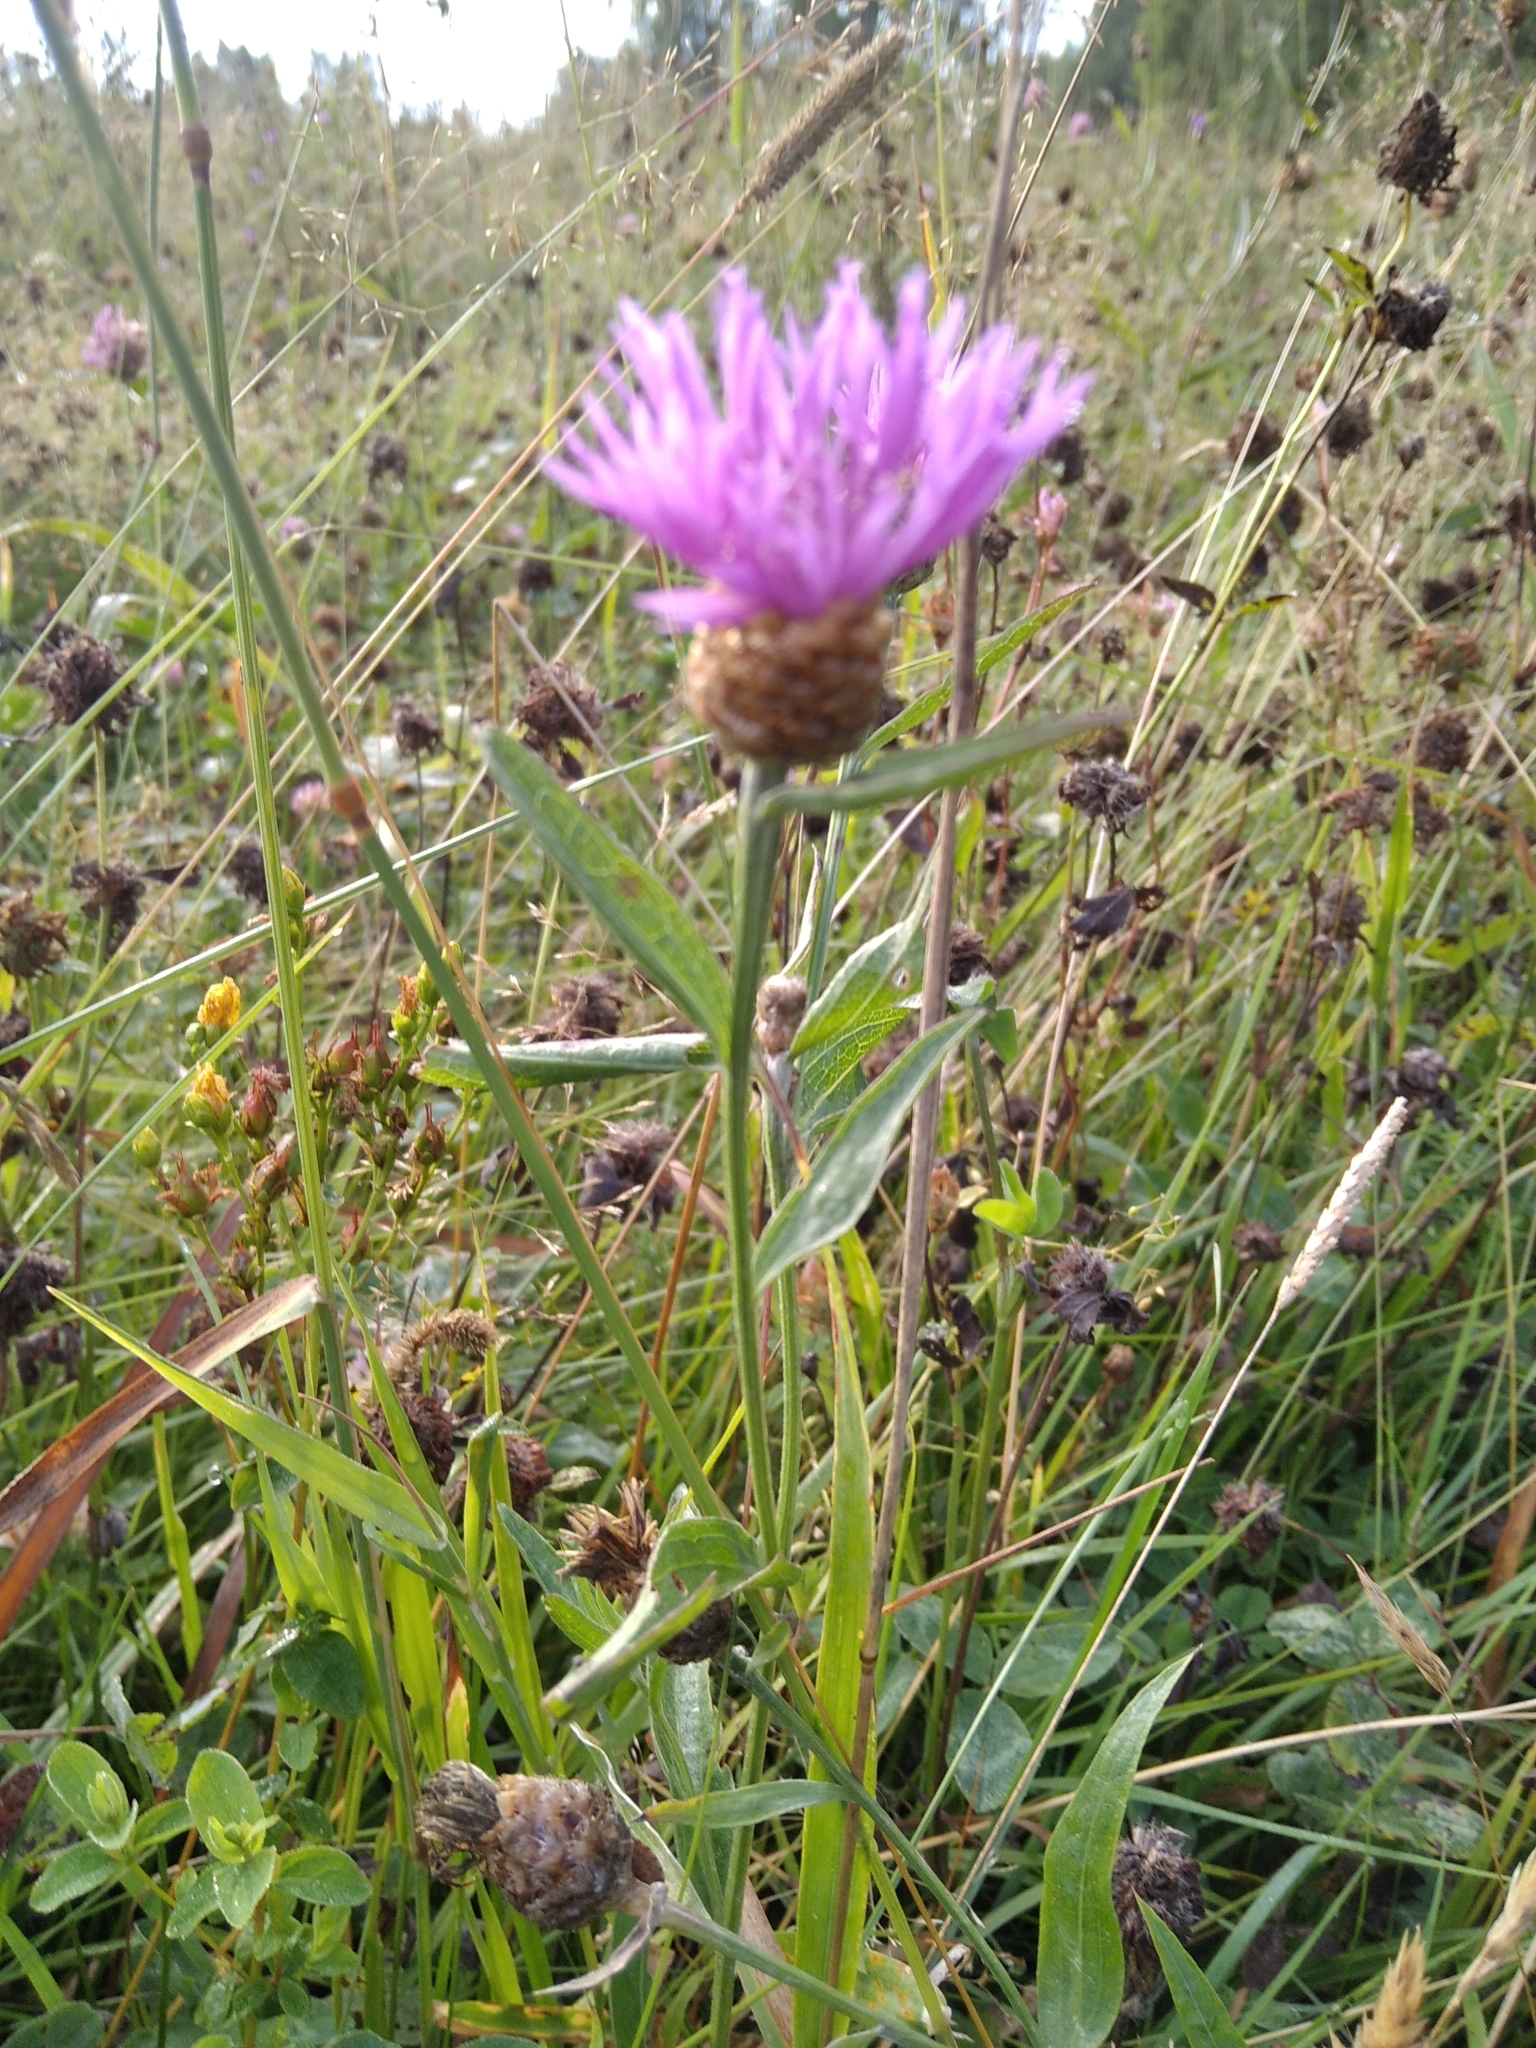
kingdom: Plantae
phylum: Tracheophyta
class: Magnoliopsida
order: Asterales
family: Asteraceae
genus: Centaurea
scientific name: Centaurea jacea
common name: Brown knapweed
